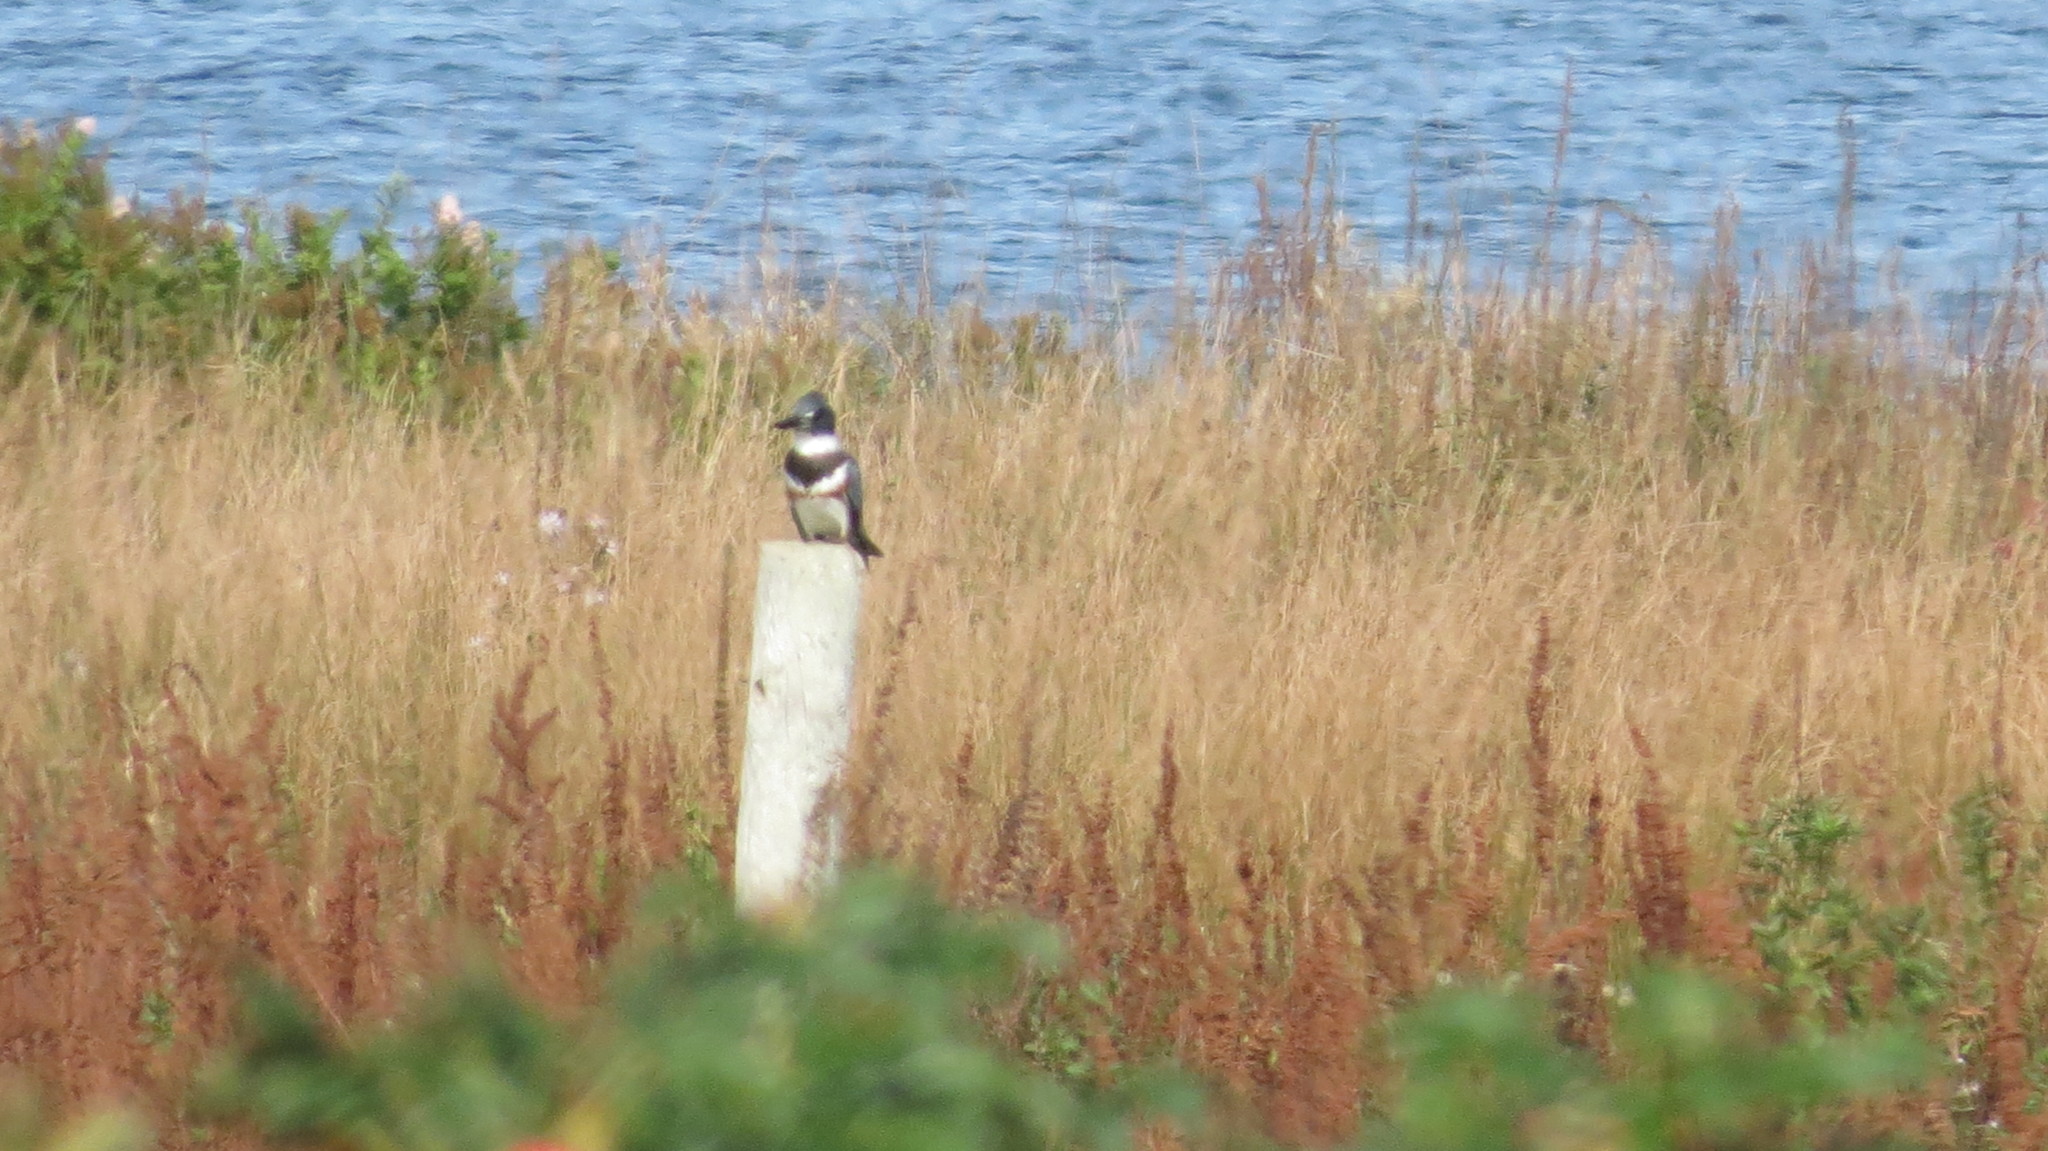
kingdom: Animalia
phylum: Chordata
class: Aves
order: Coraciiformes
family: Alcedinidae
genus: Megaceryle
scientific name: Megaceryle alcyon
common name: Belted kingfisher
